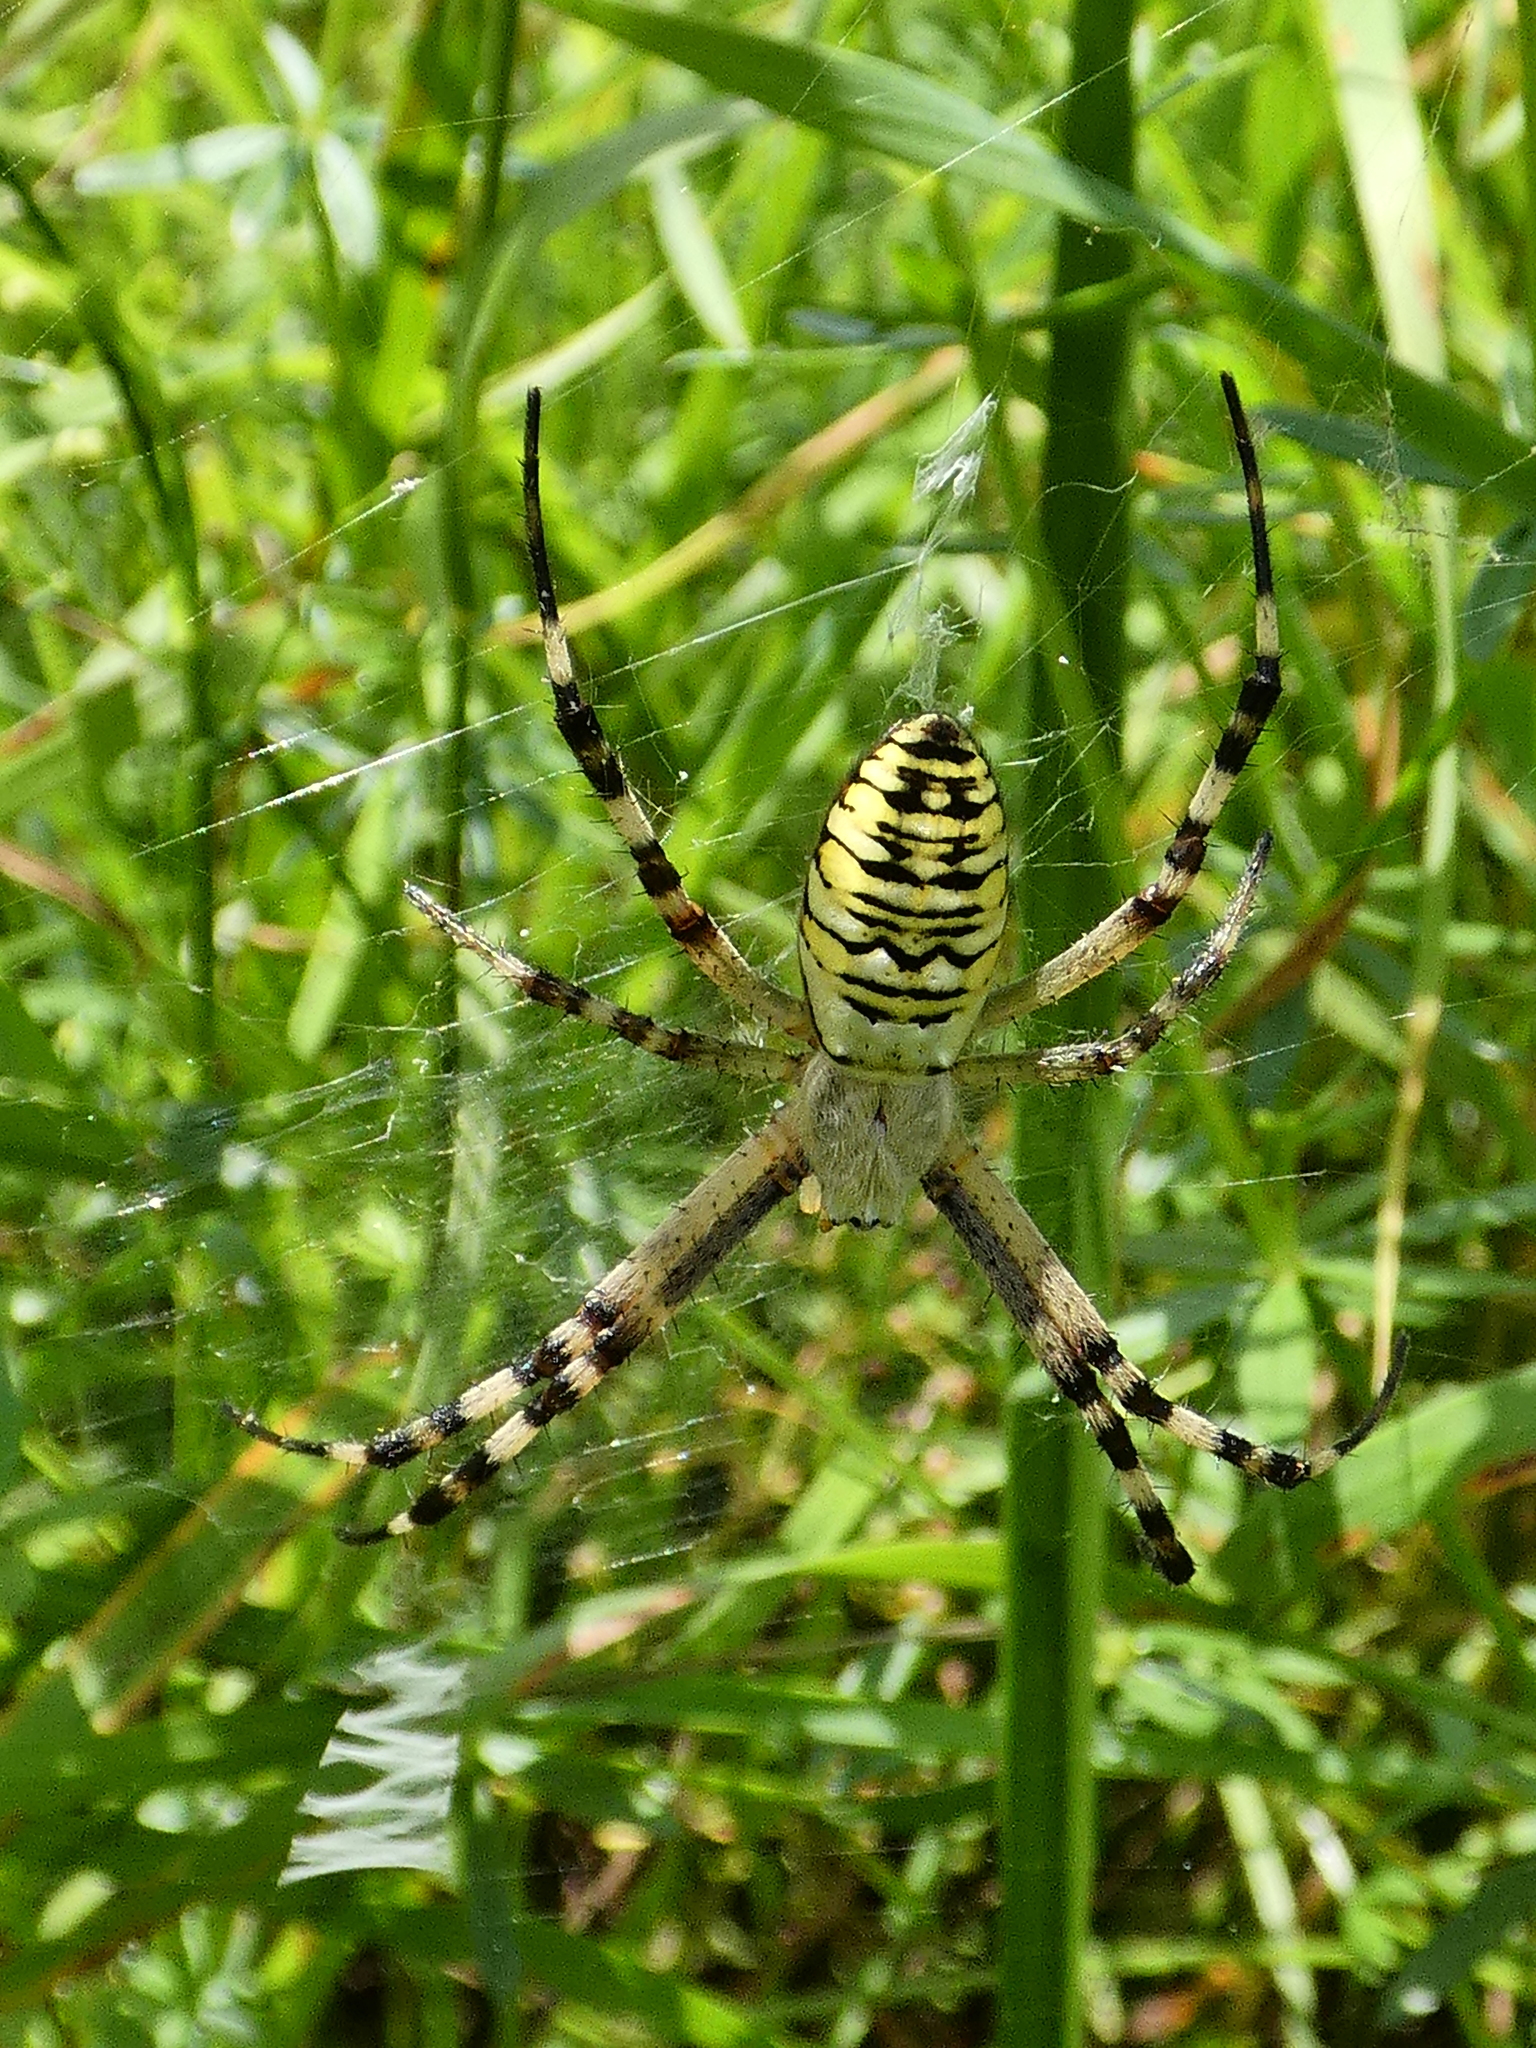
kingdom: Animalia
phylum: Arthropoda
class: Arachnida
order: Araneae
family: Araneidae
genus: Argiope
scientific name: Argiope bruennichi
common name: Wasp spider
